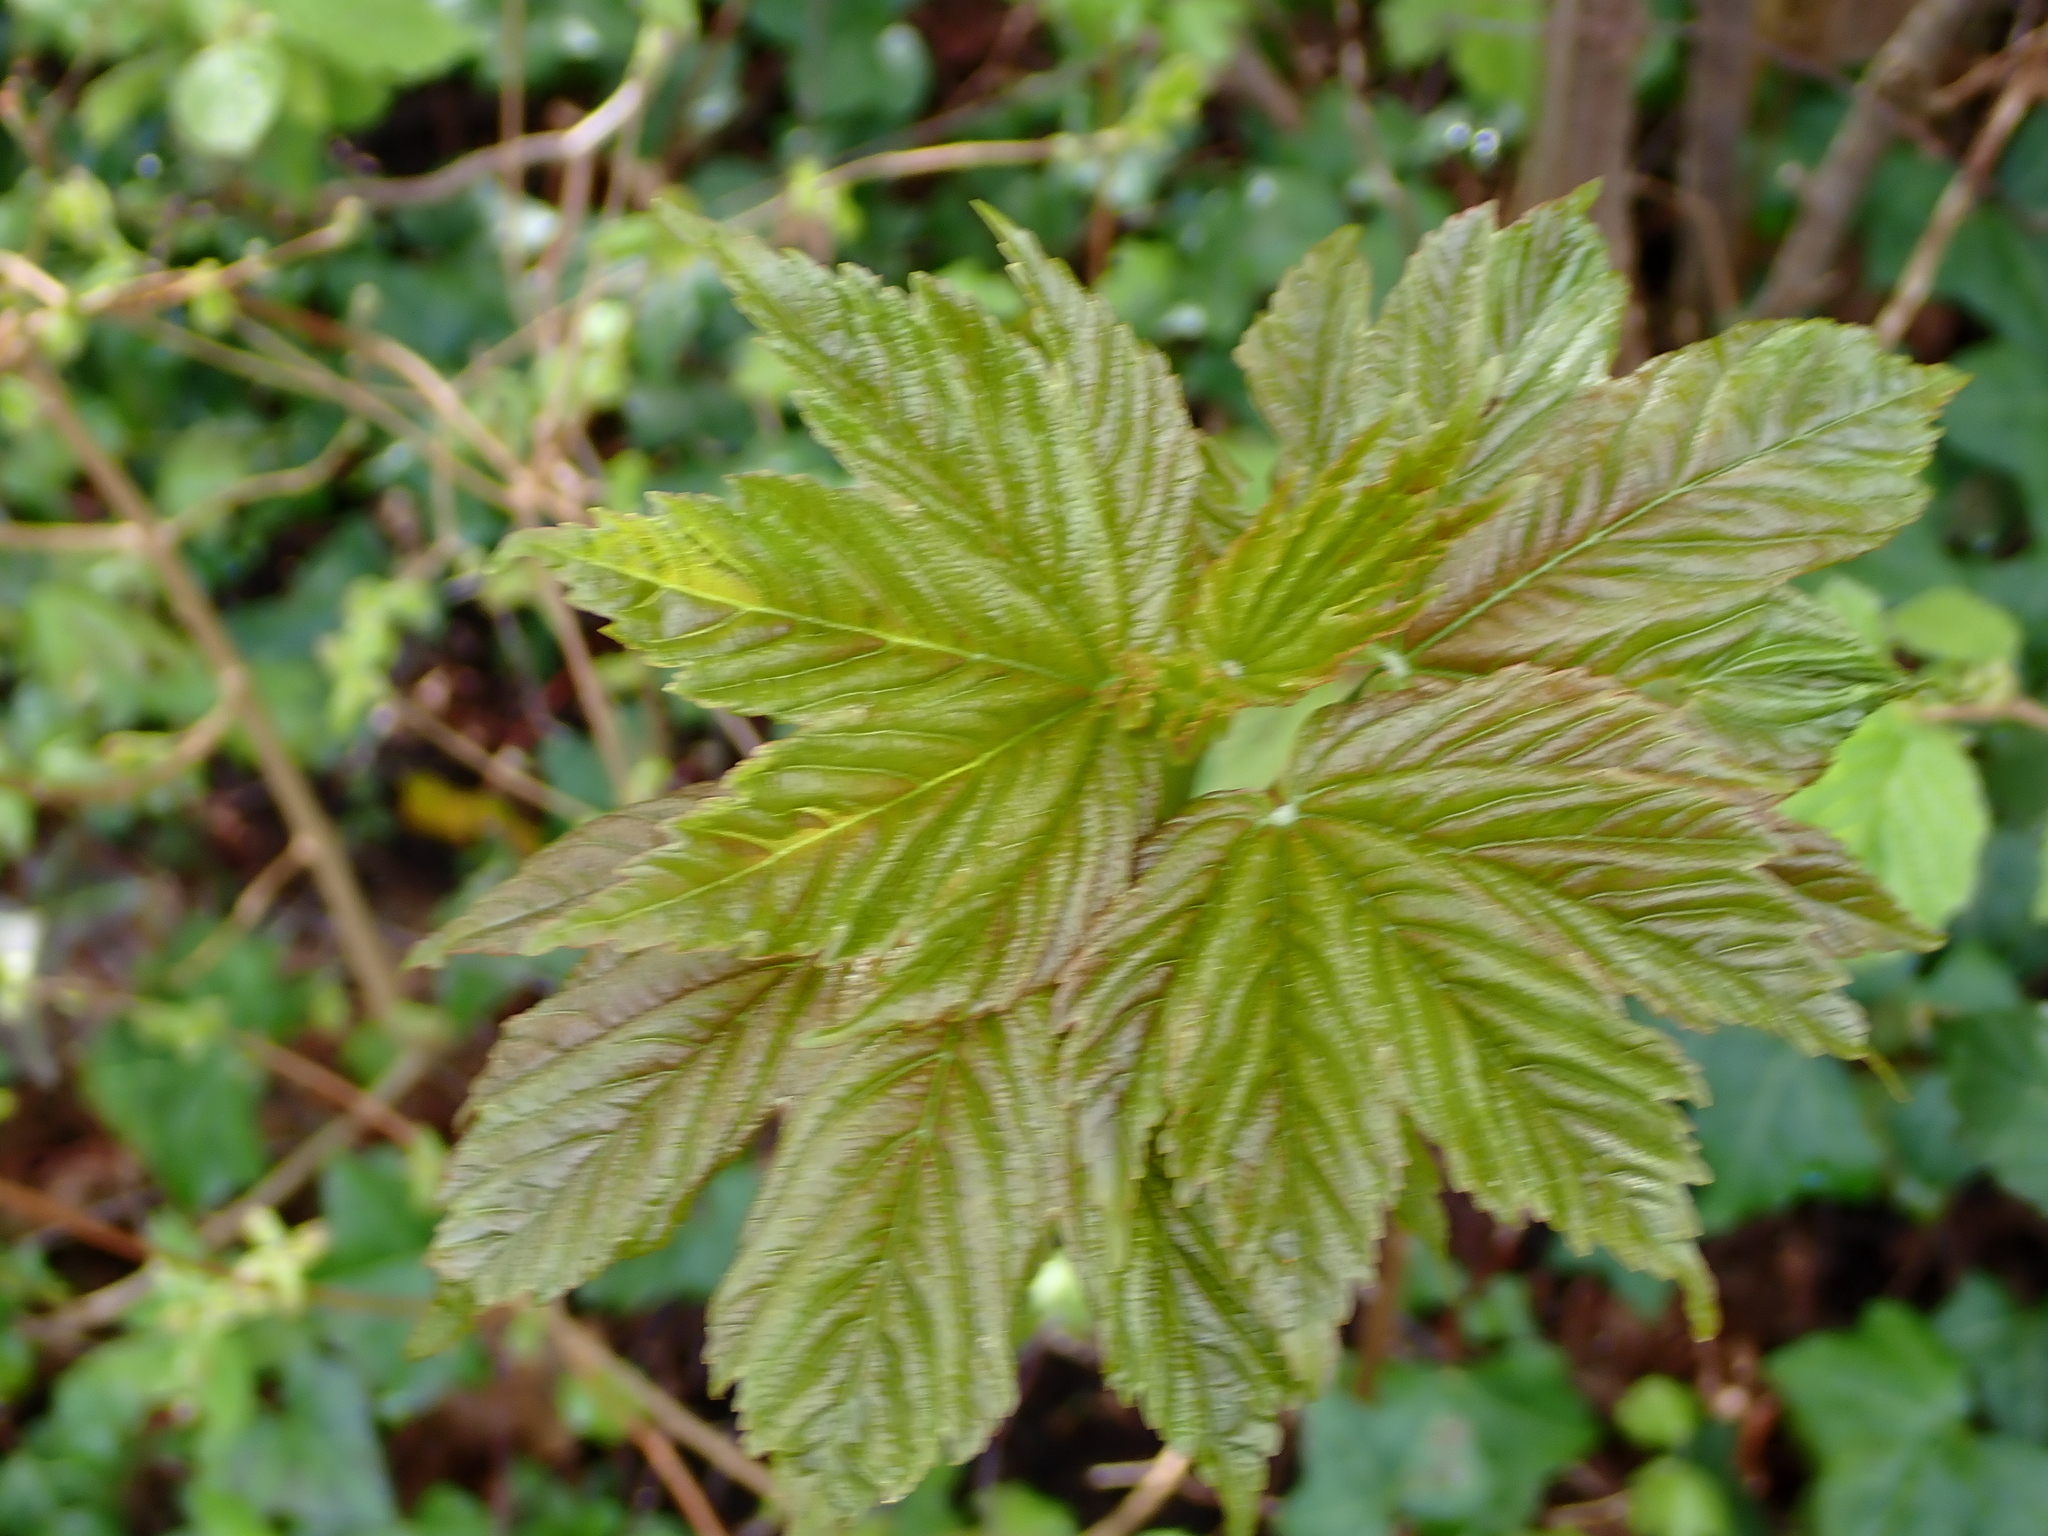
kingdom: Plantae
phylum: Tracheophyta
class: Magnoliopsida
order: Sapindales
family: Sapindaceae
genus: Acer
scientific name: Acer pseudoplatanus
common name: Sycamore
